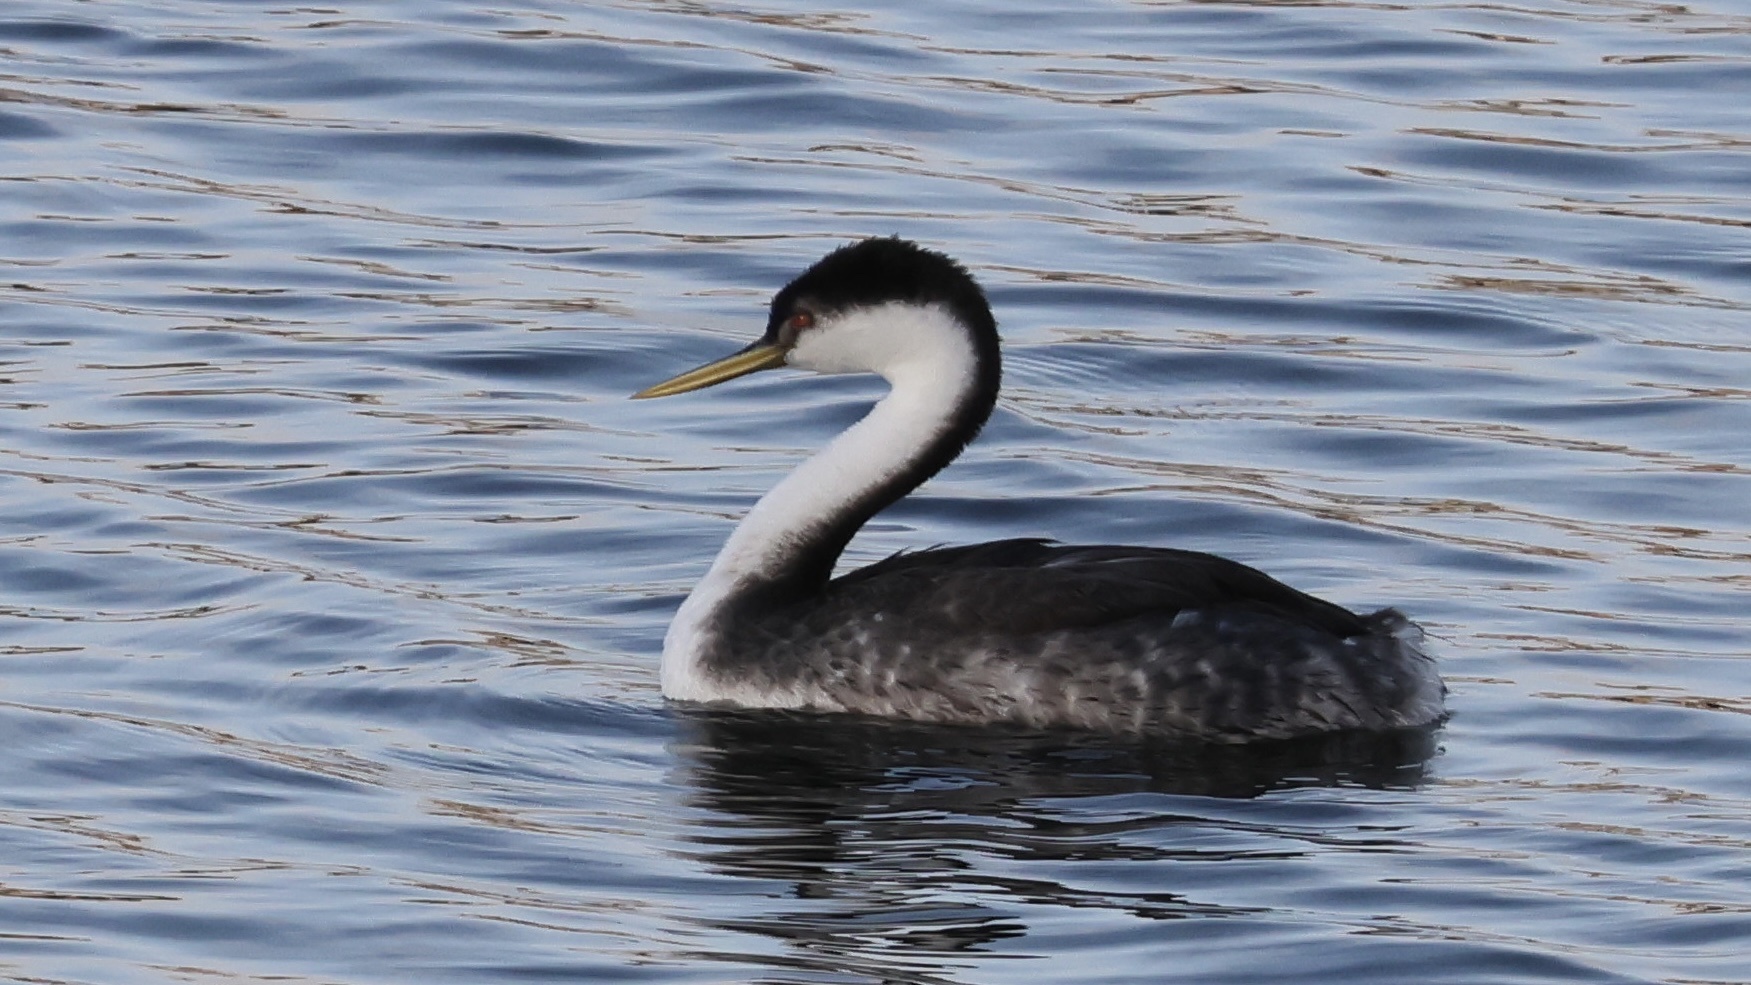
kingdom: Animalia
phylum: Chordata
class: Aves
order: Podicipediformes
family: Podicipedidae
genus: Aechmophorus
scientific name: Aechmophorus occidentalis
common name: Western grebe
